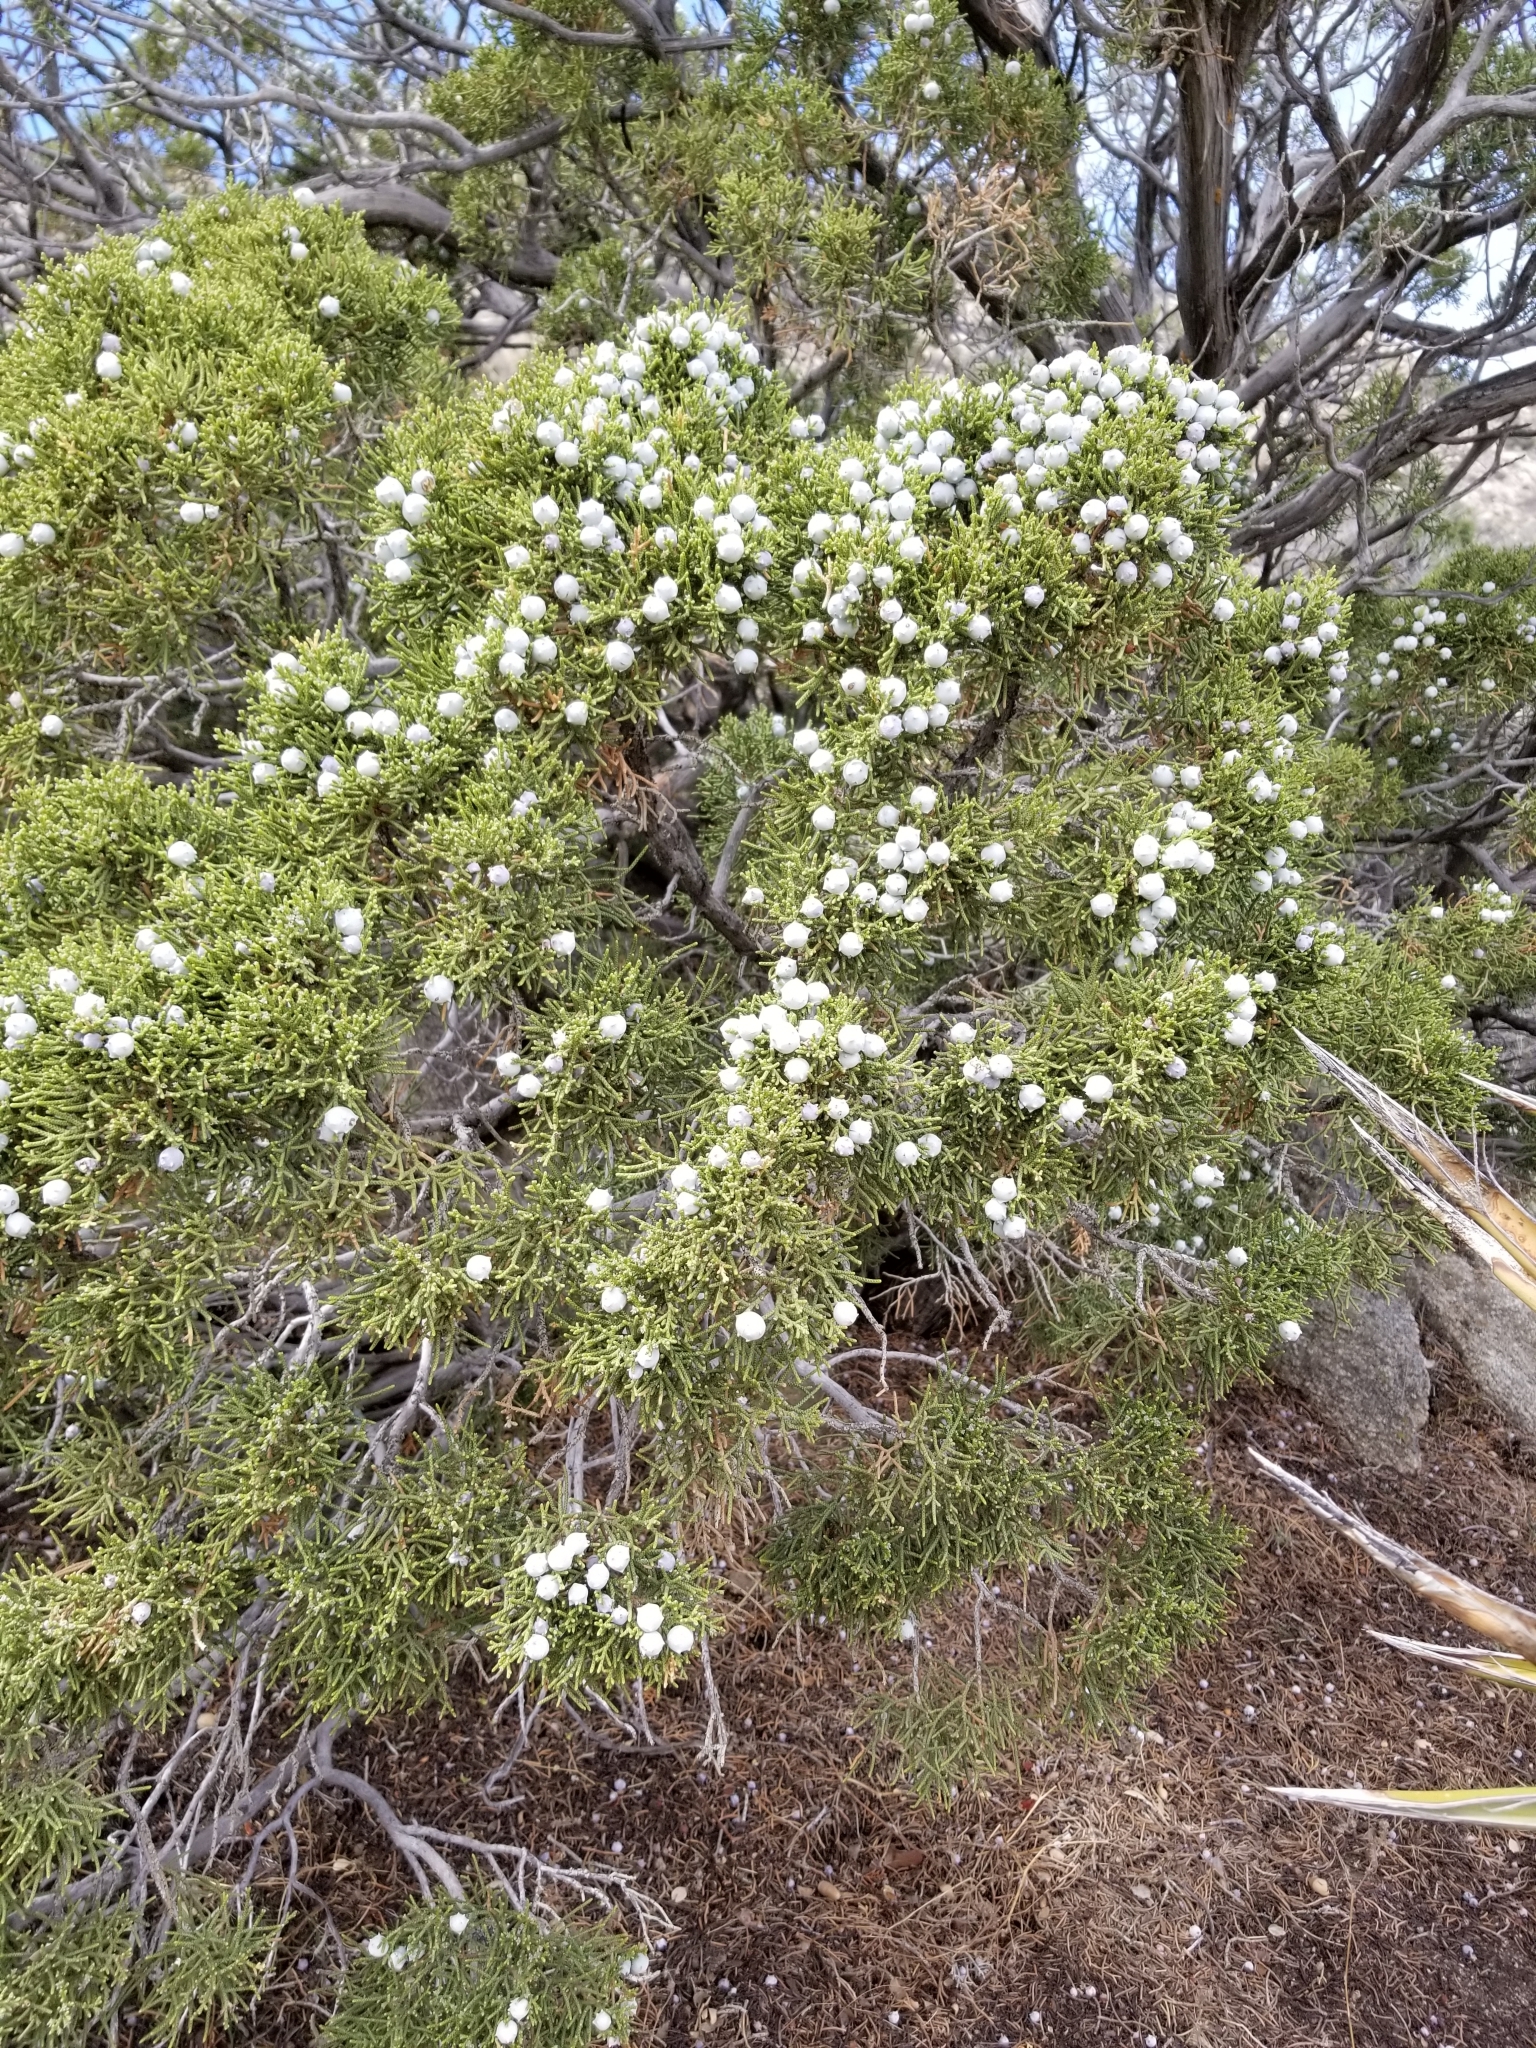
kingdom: Plantae
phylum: Tracheophyta
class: Pinopsida
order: Pinales
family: Cupressaceae
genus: Juniperus
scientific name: Juniperus californica
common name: California juniper
